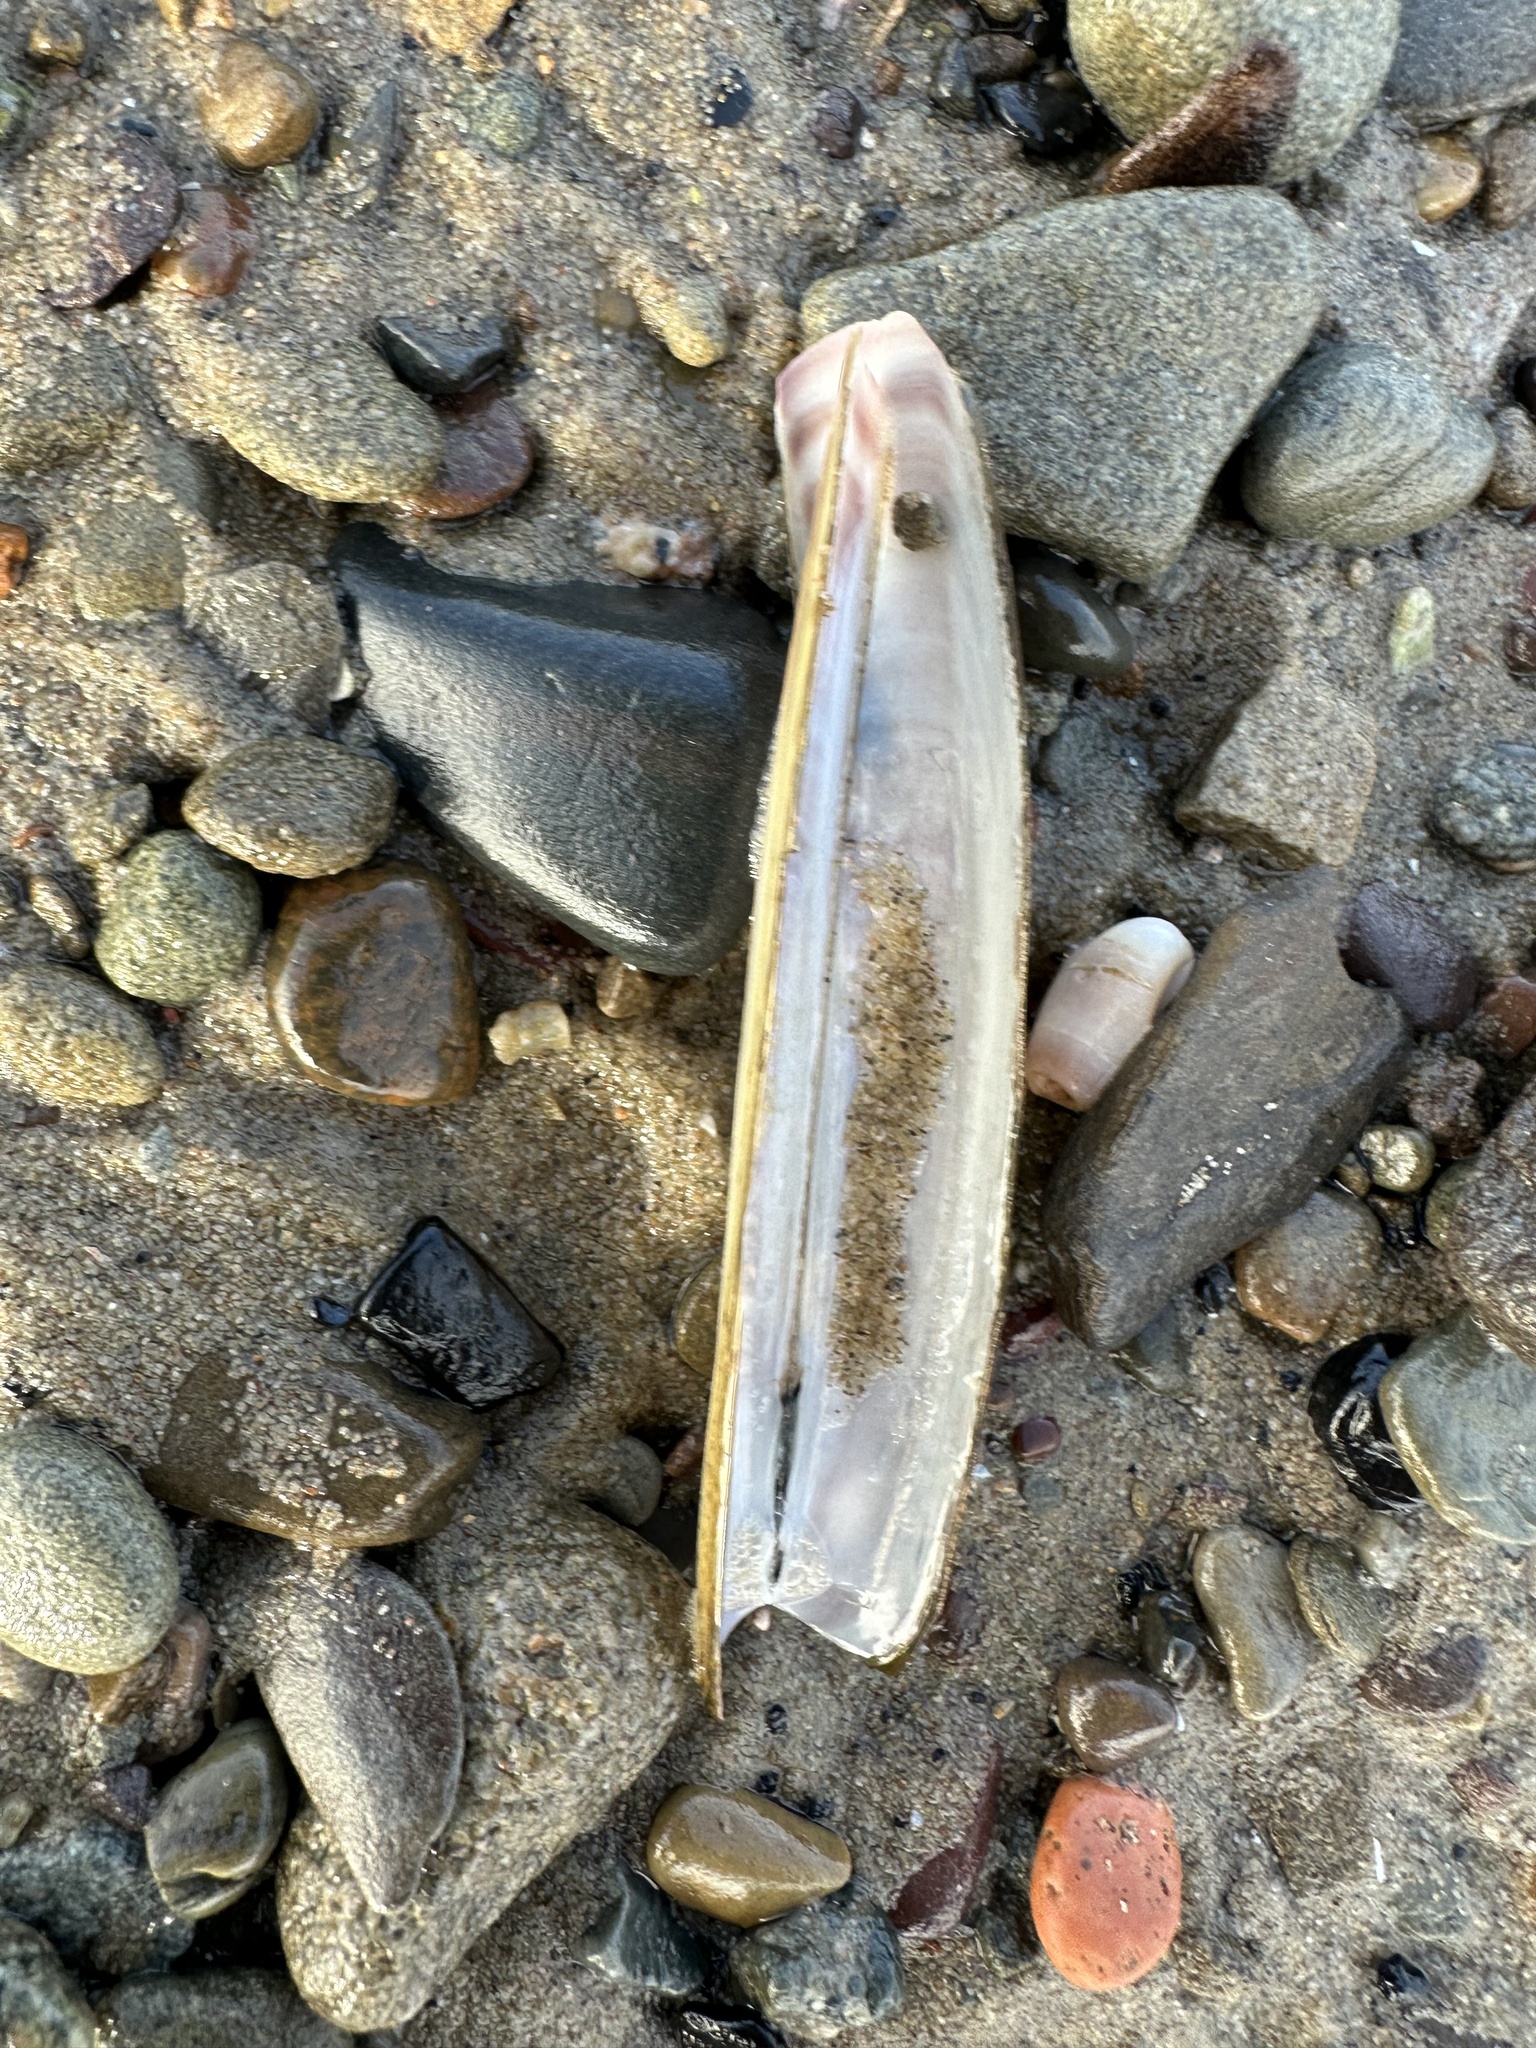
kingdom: Animalia
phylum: Mollusca
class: Bivalvia
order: Adapedonta
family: Pharidae
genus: Ensis
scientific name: Ensis leei
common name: American jack knife clam
